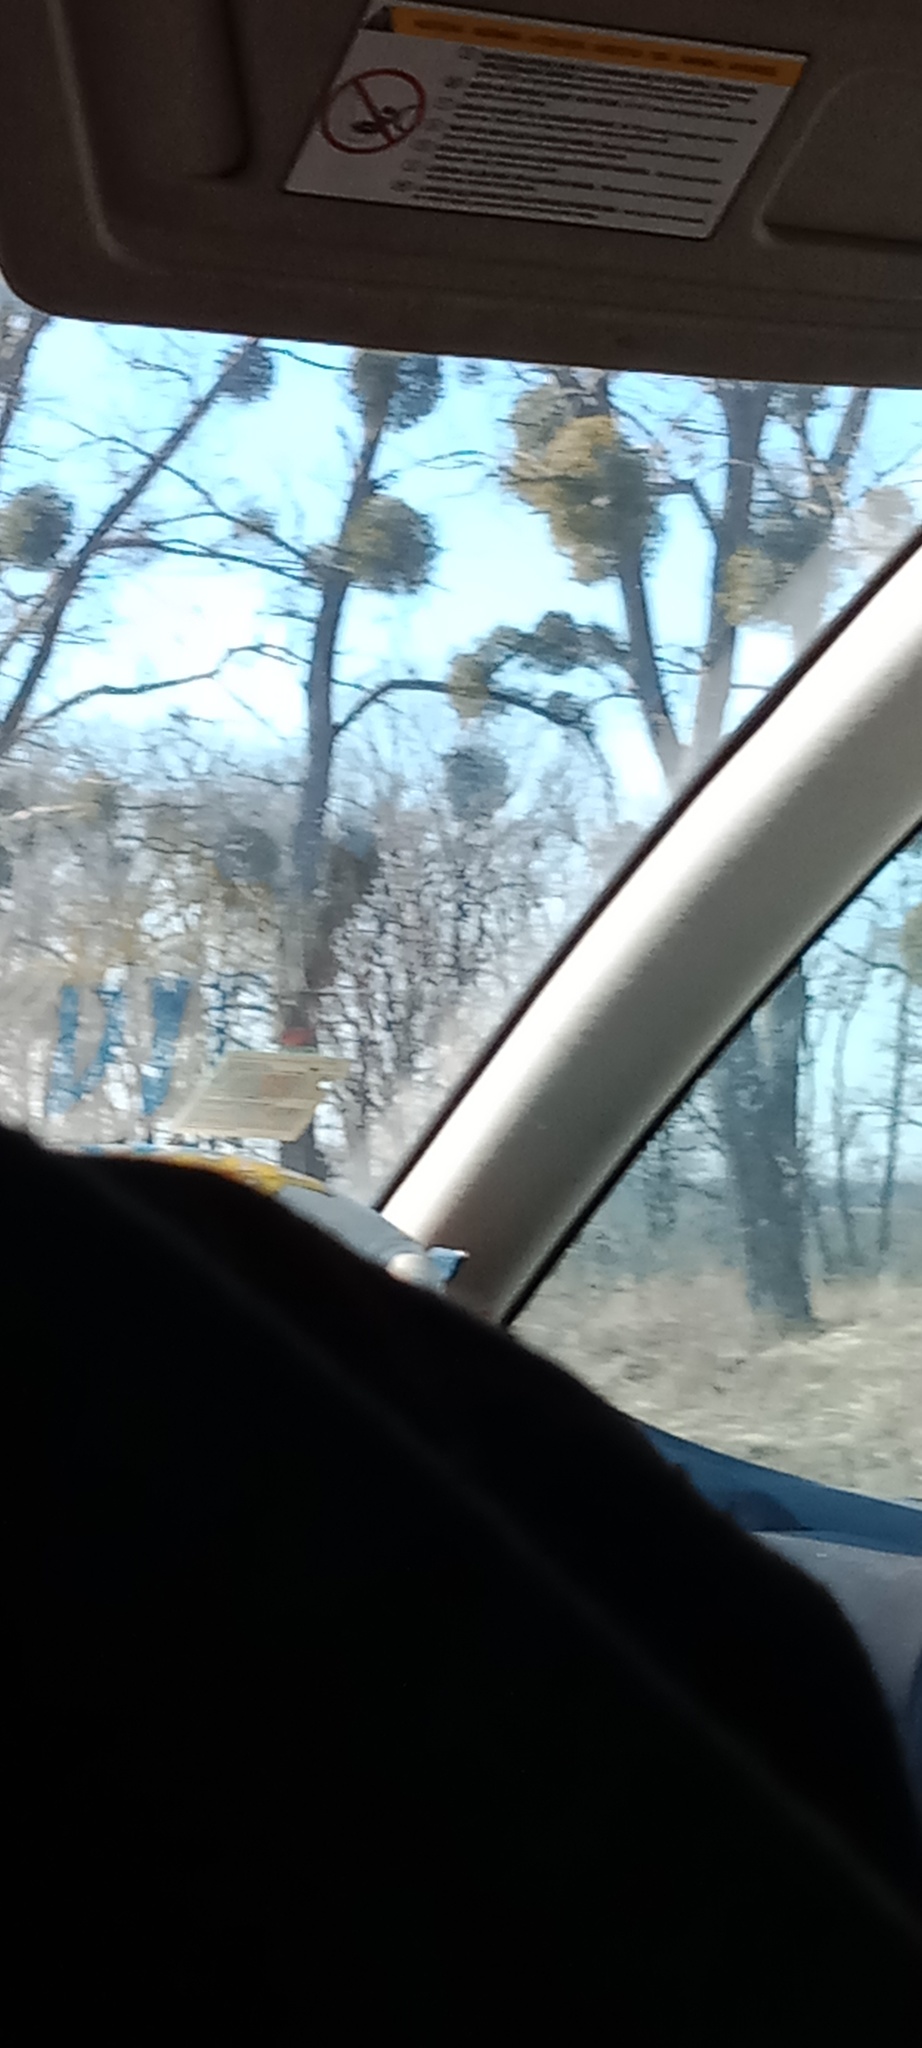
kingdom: Plantae
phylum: Tracheophyta
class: Magnoliopsida
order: Santalales
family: Viscaceae
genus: Viscum
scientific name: Viscum album
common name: Mistletoe
